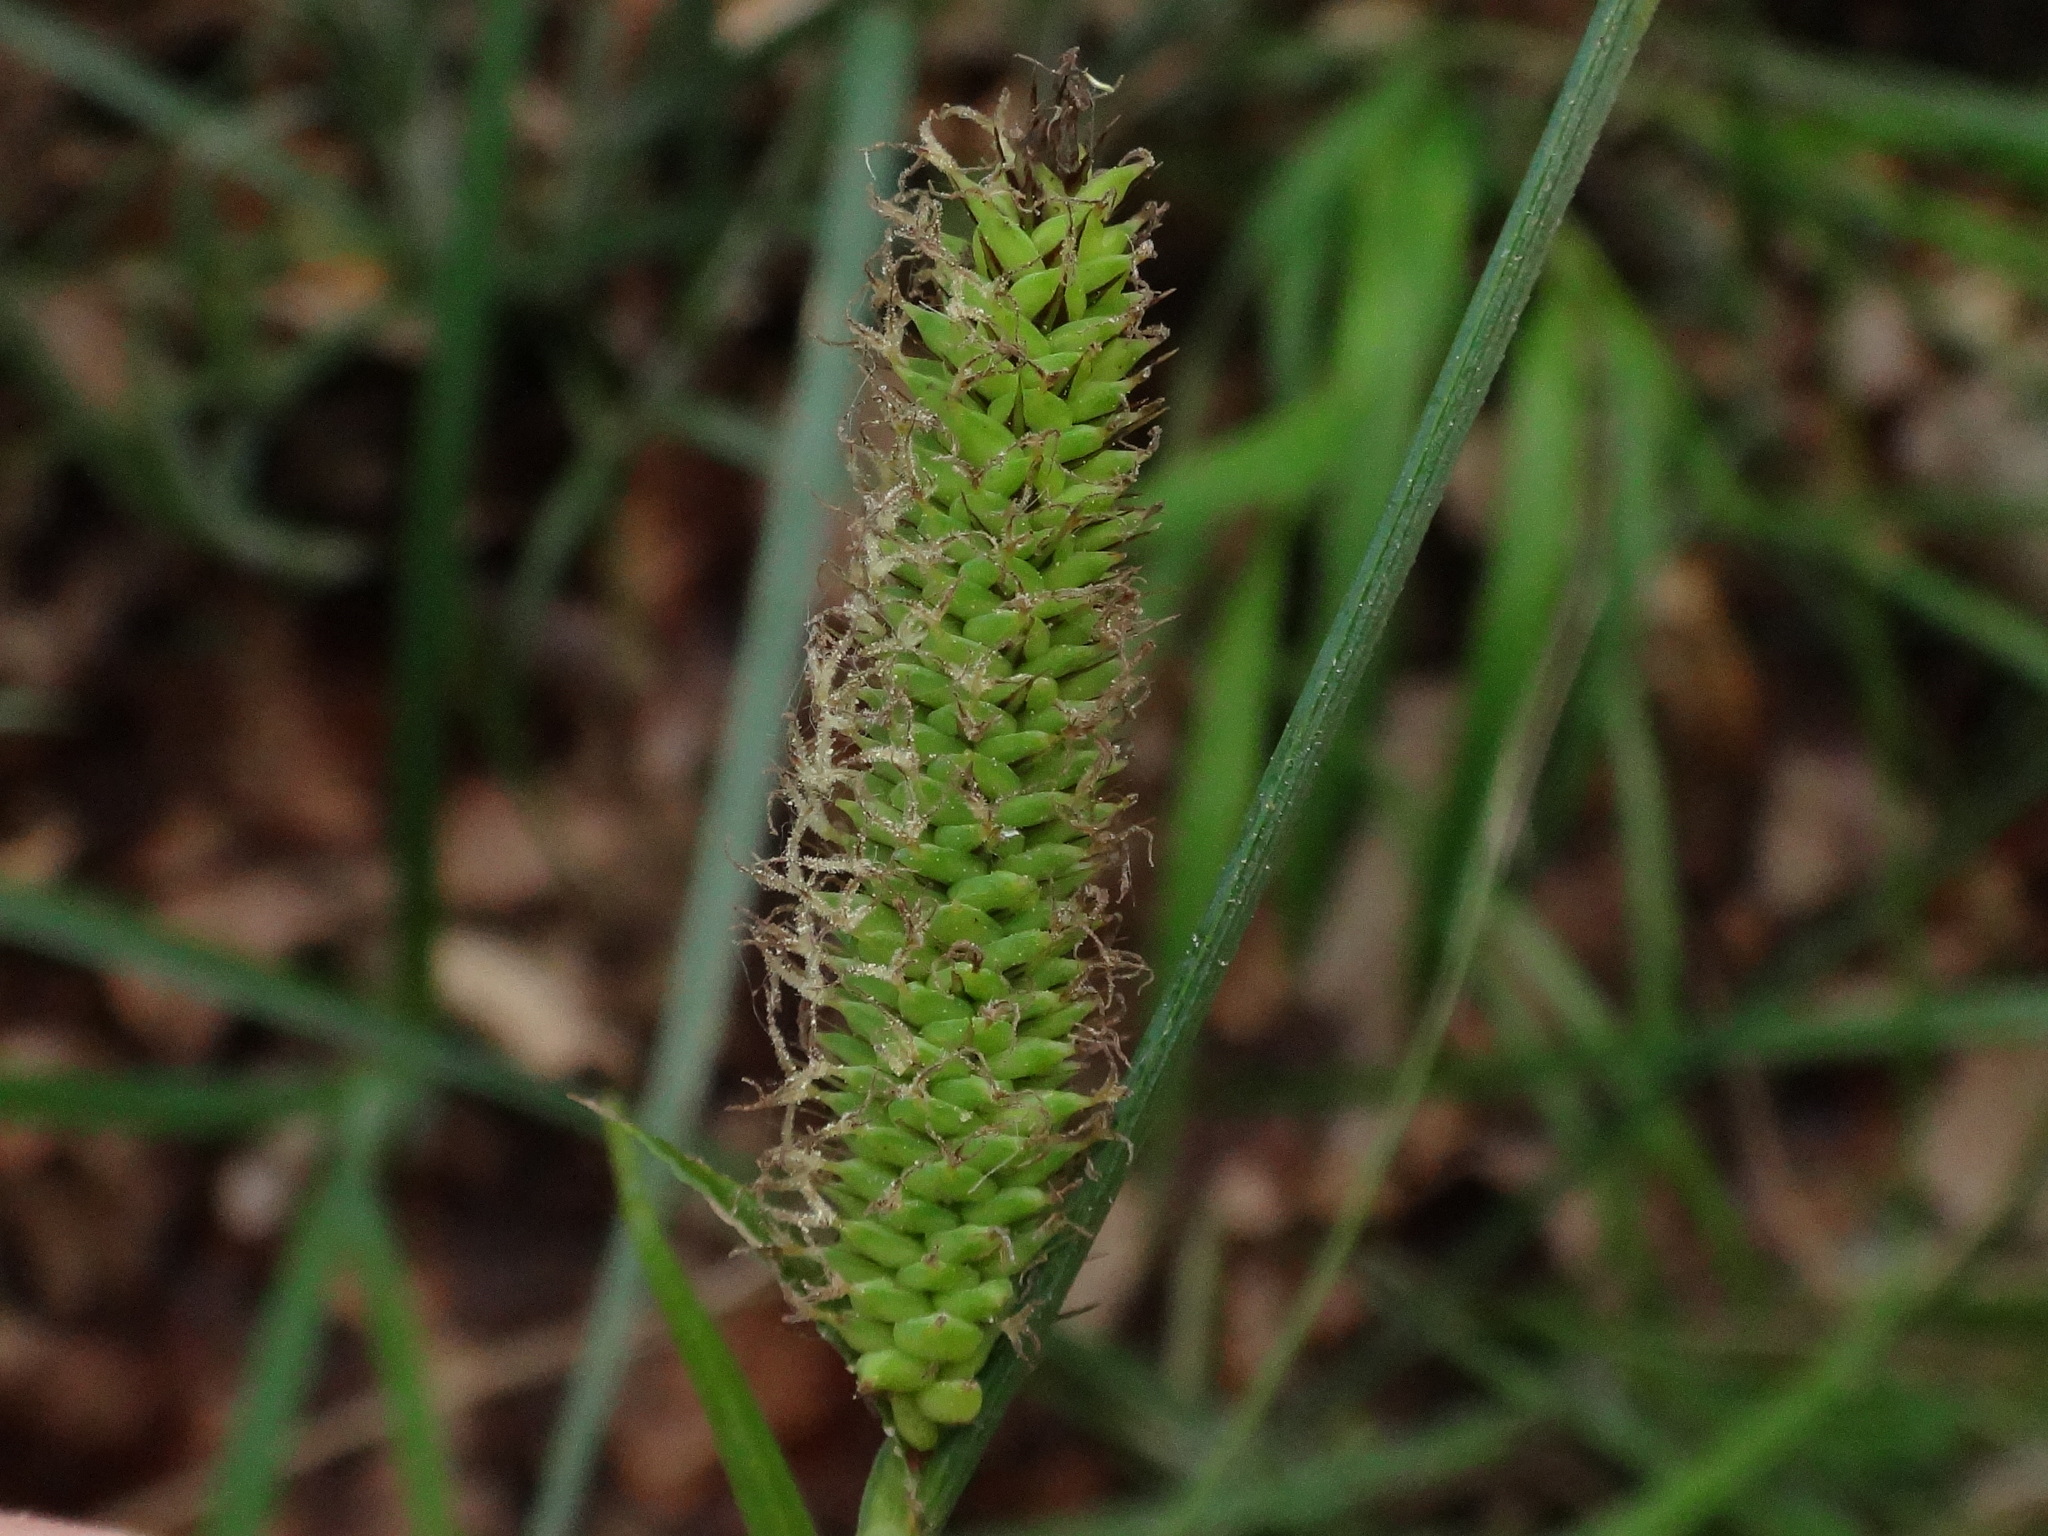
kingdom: Plantae
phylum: Tracheophyta
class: Liliopsida
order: Poales
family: Cyperaceae
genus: Carex
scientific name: Carex acuta
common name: Slender tufted-sedge
